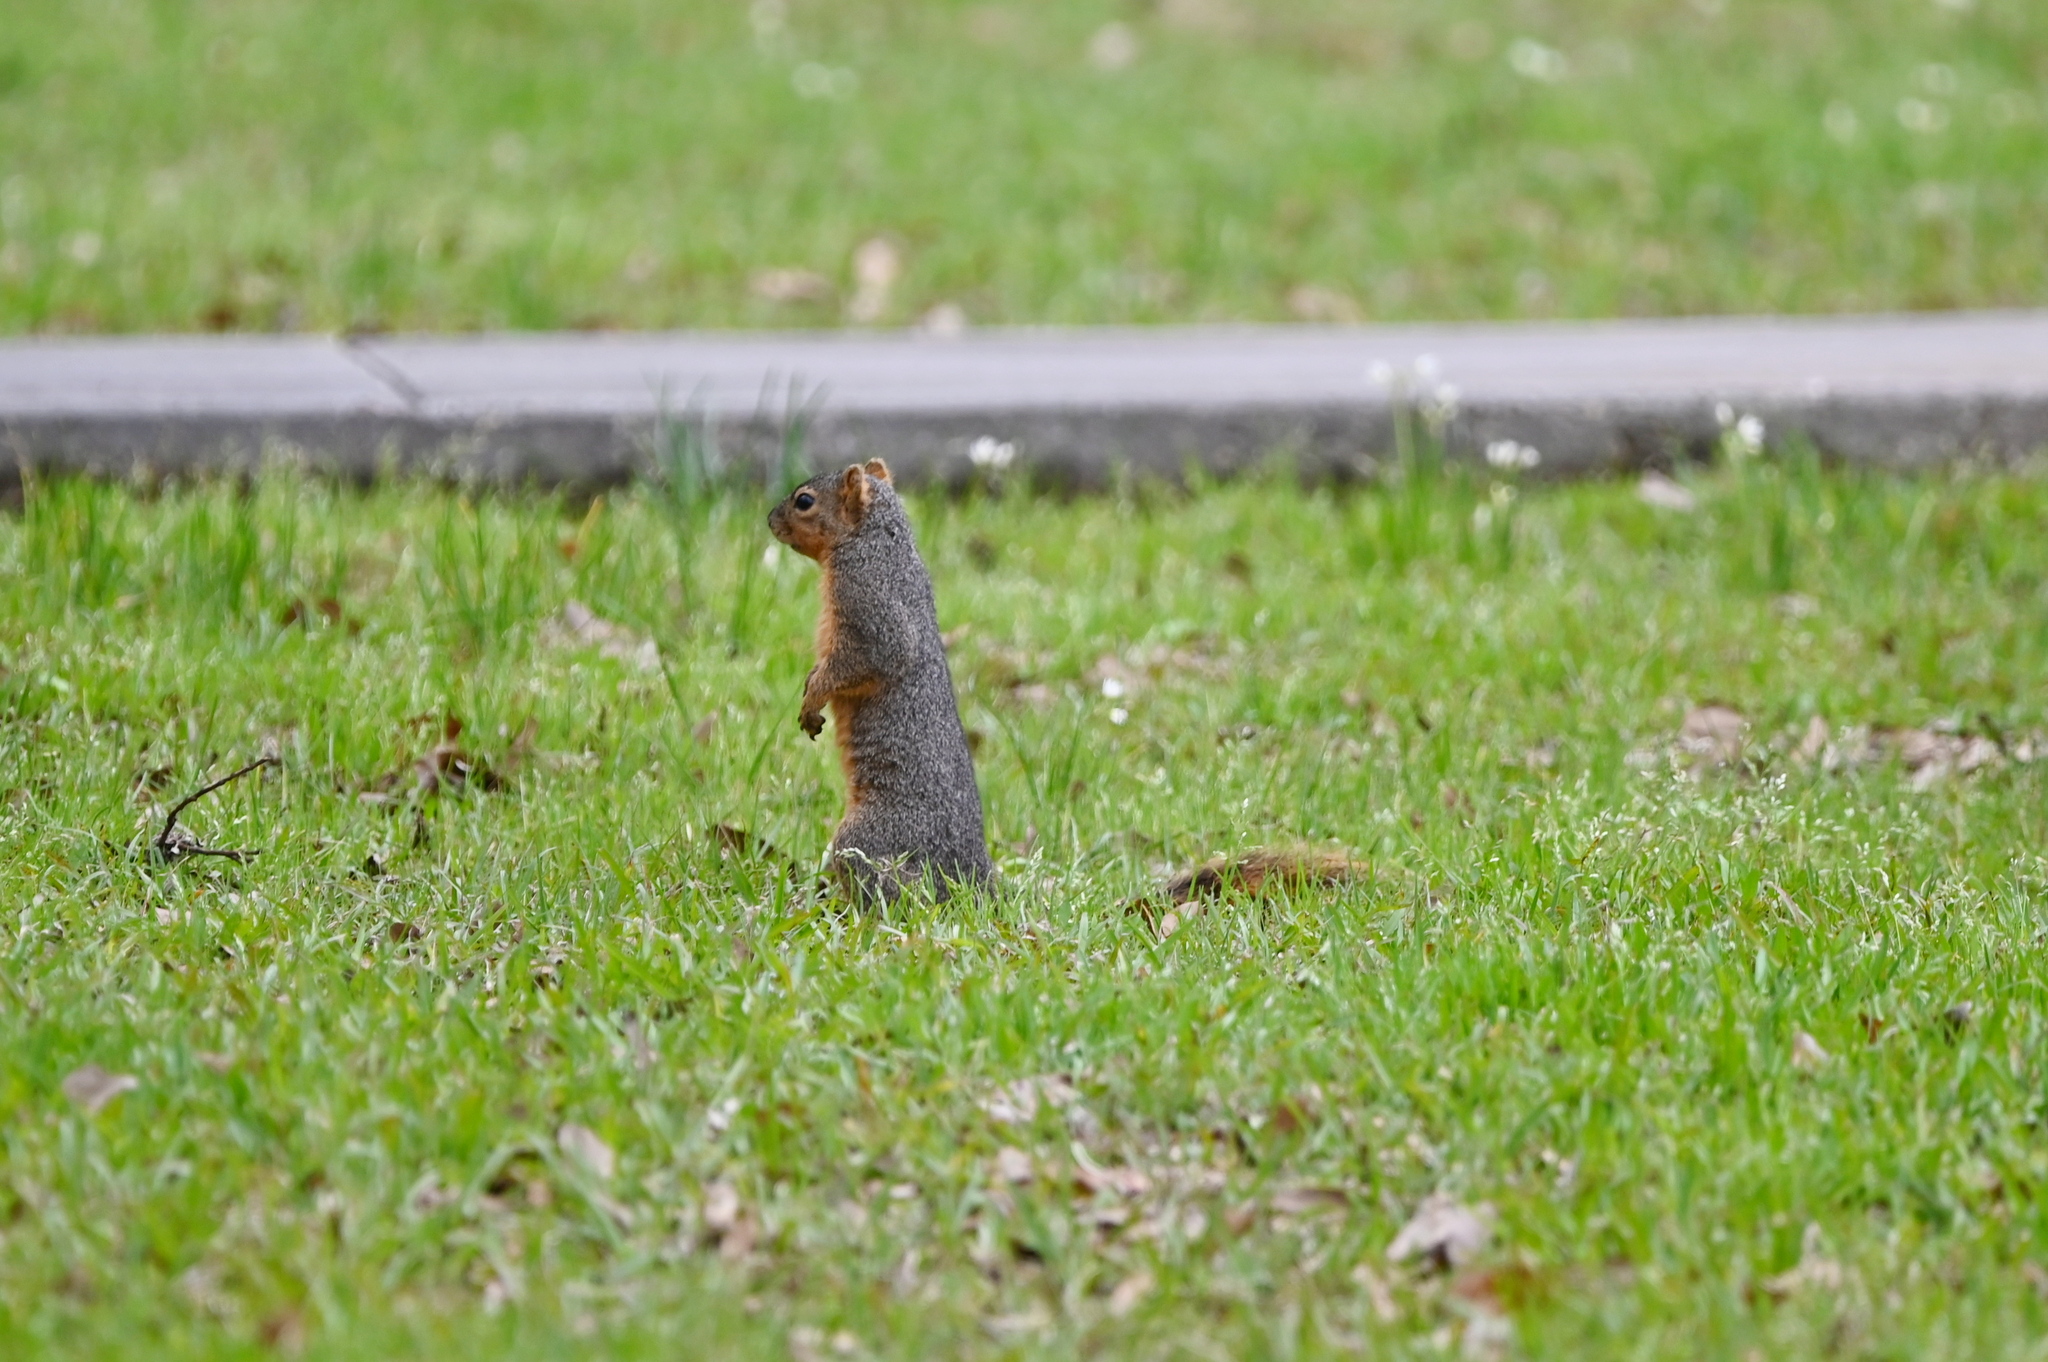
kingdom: Animalia
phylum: Chordata
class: Mammalia
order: Rodentia
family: Sciuridae
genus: Sciurus
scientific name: Sciurus niger
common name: Fox squirrel
